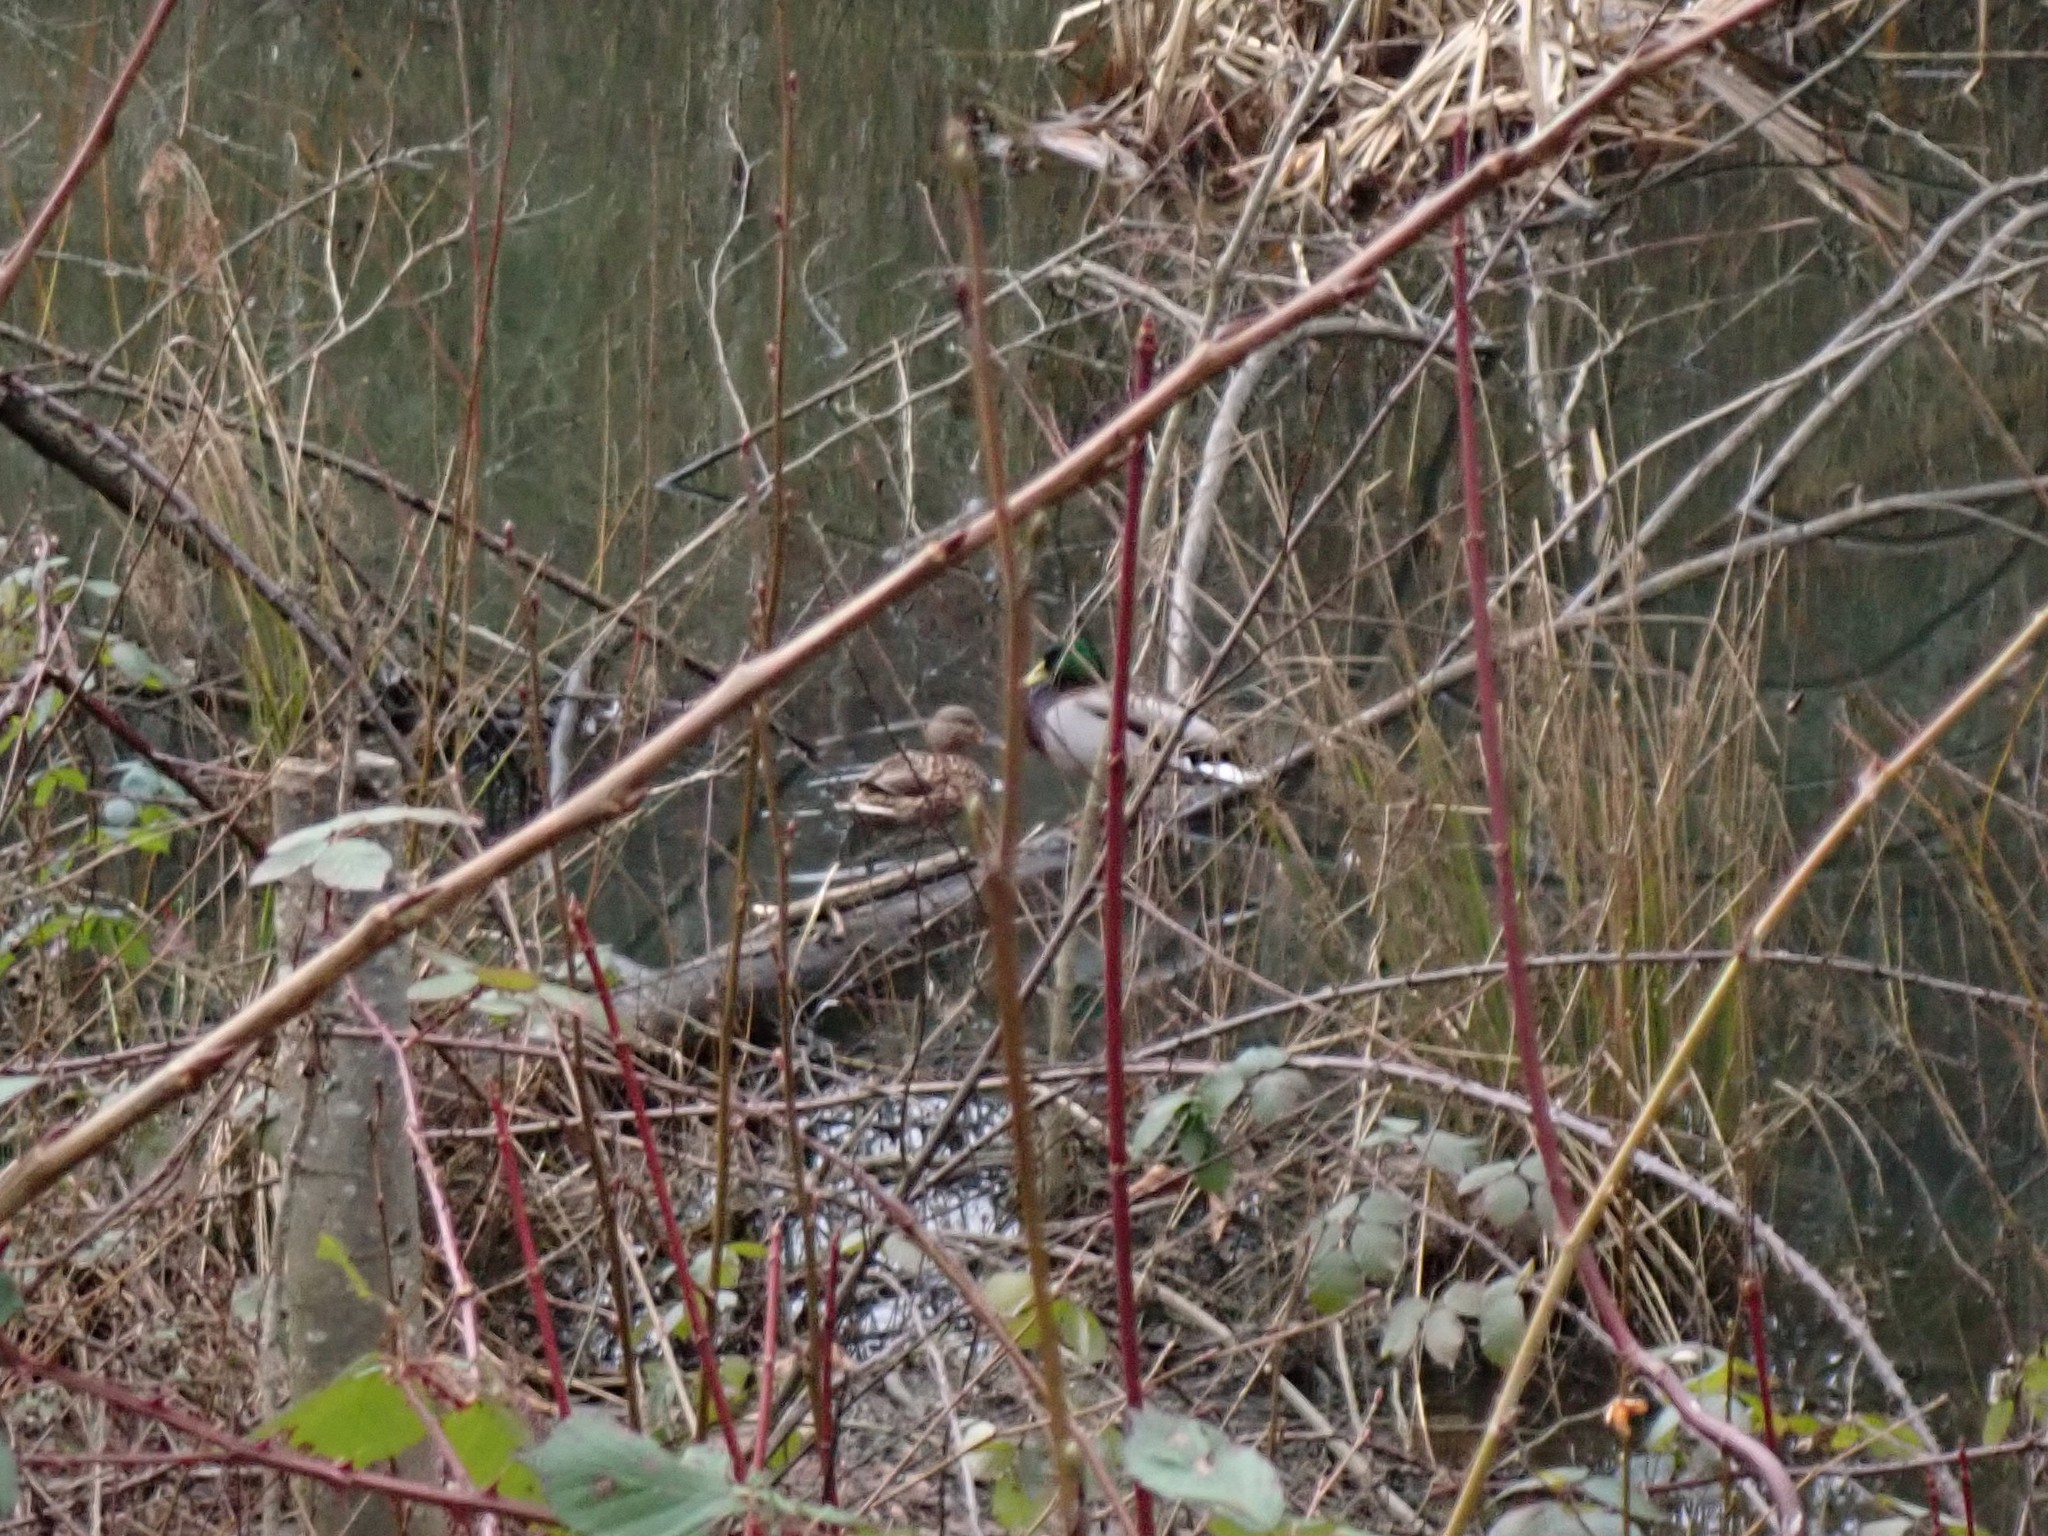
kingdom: Animalia
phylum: Chordata
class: Aves
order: Anseriformes
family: Anatidae
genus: Anas
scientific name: Anas platyrhynchos
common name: Mallard
